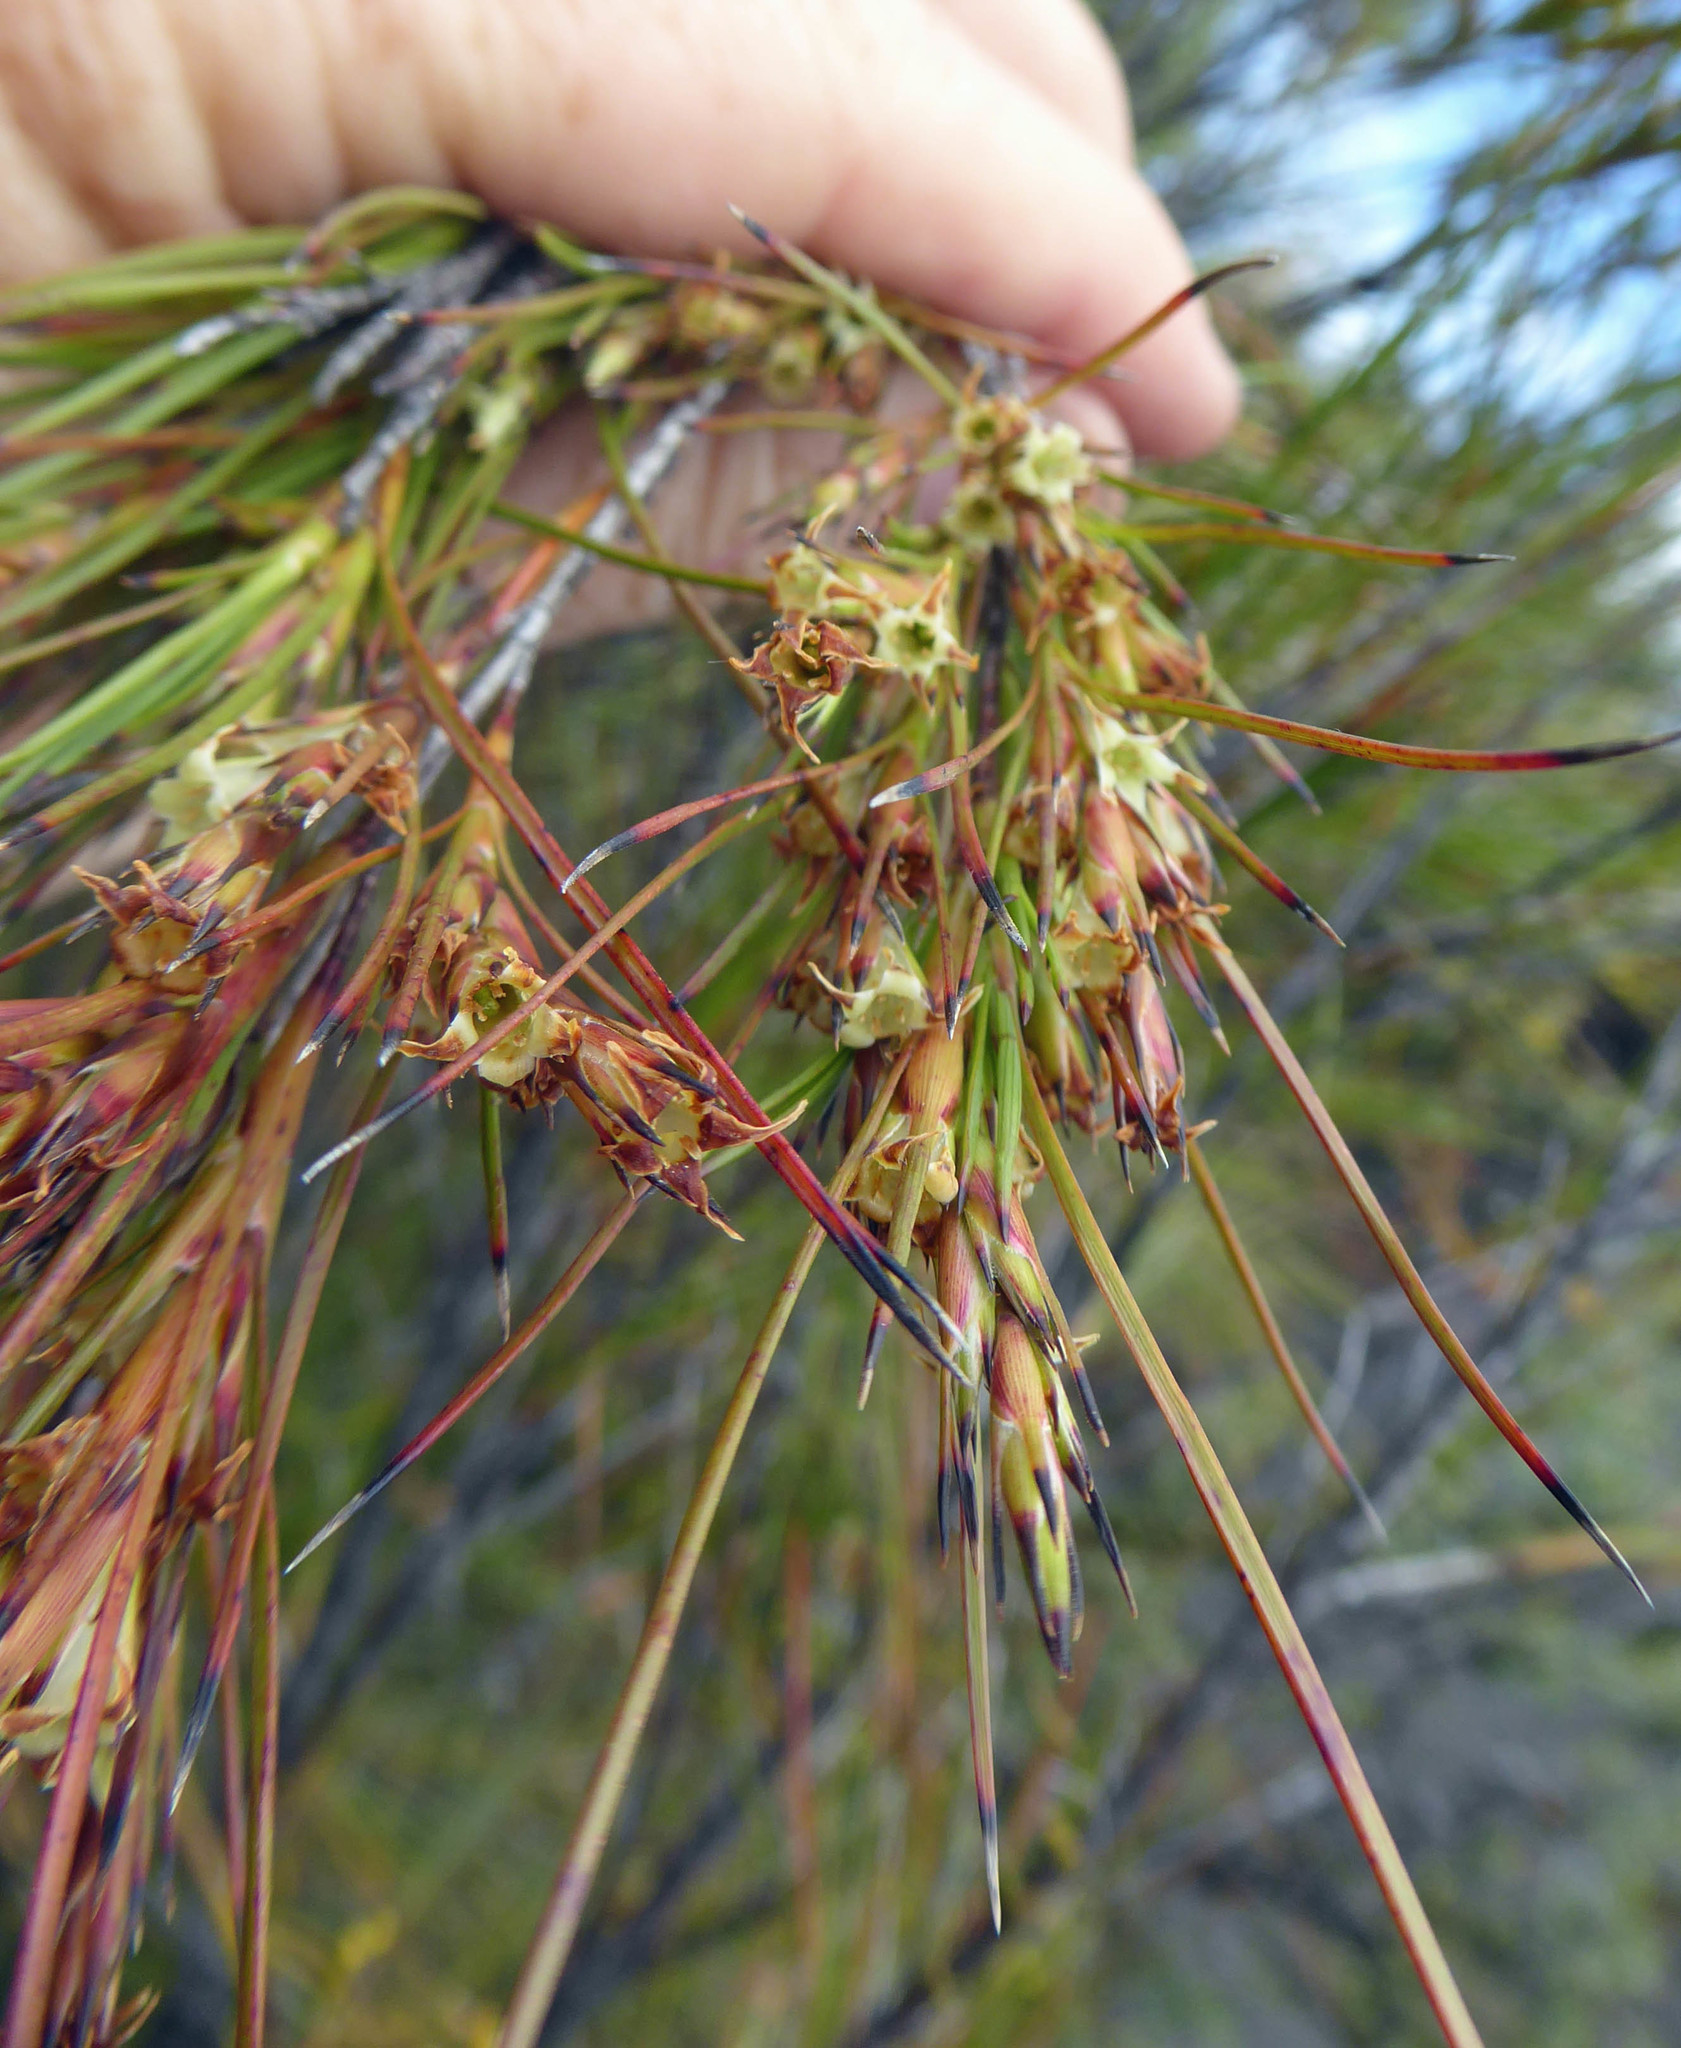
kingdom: Plantae
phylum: Tracheophyta
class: Magnoliopsida
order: Ericales
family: Ericaceae
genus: Dracophyllum
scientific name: Dracophyllum lessonianum
